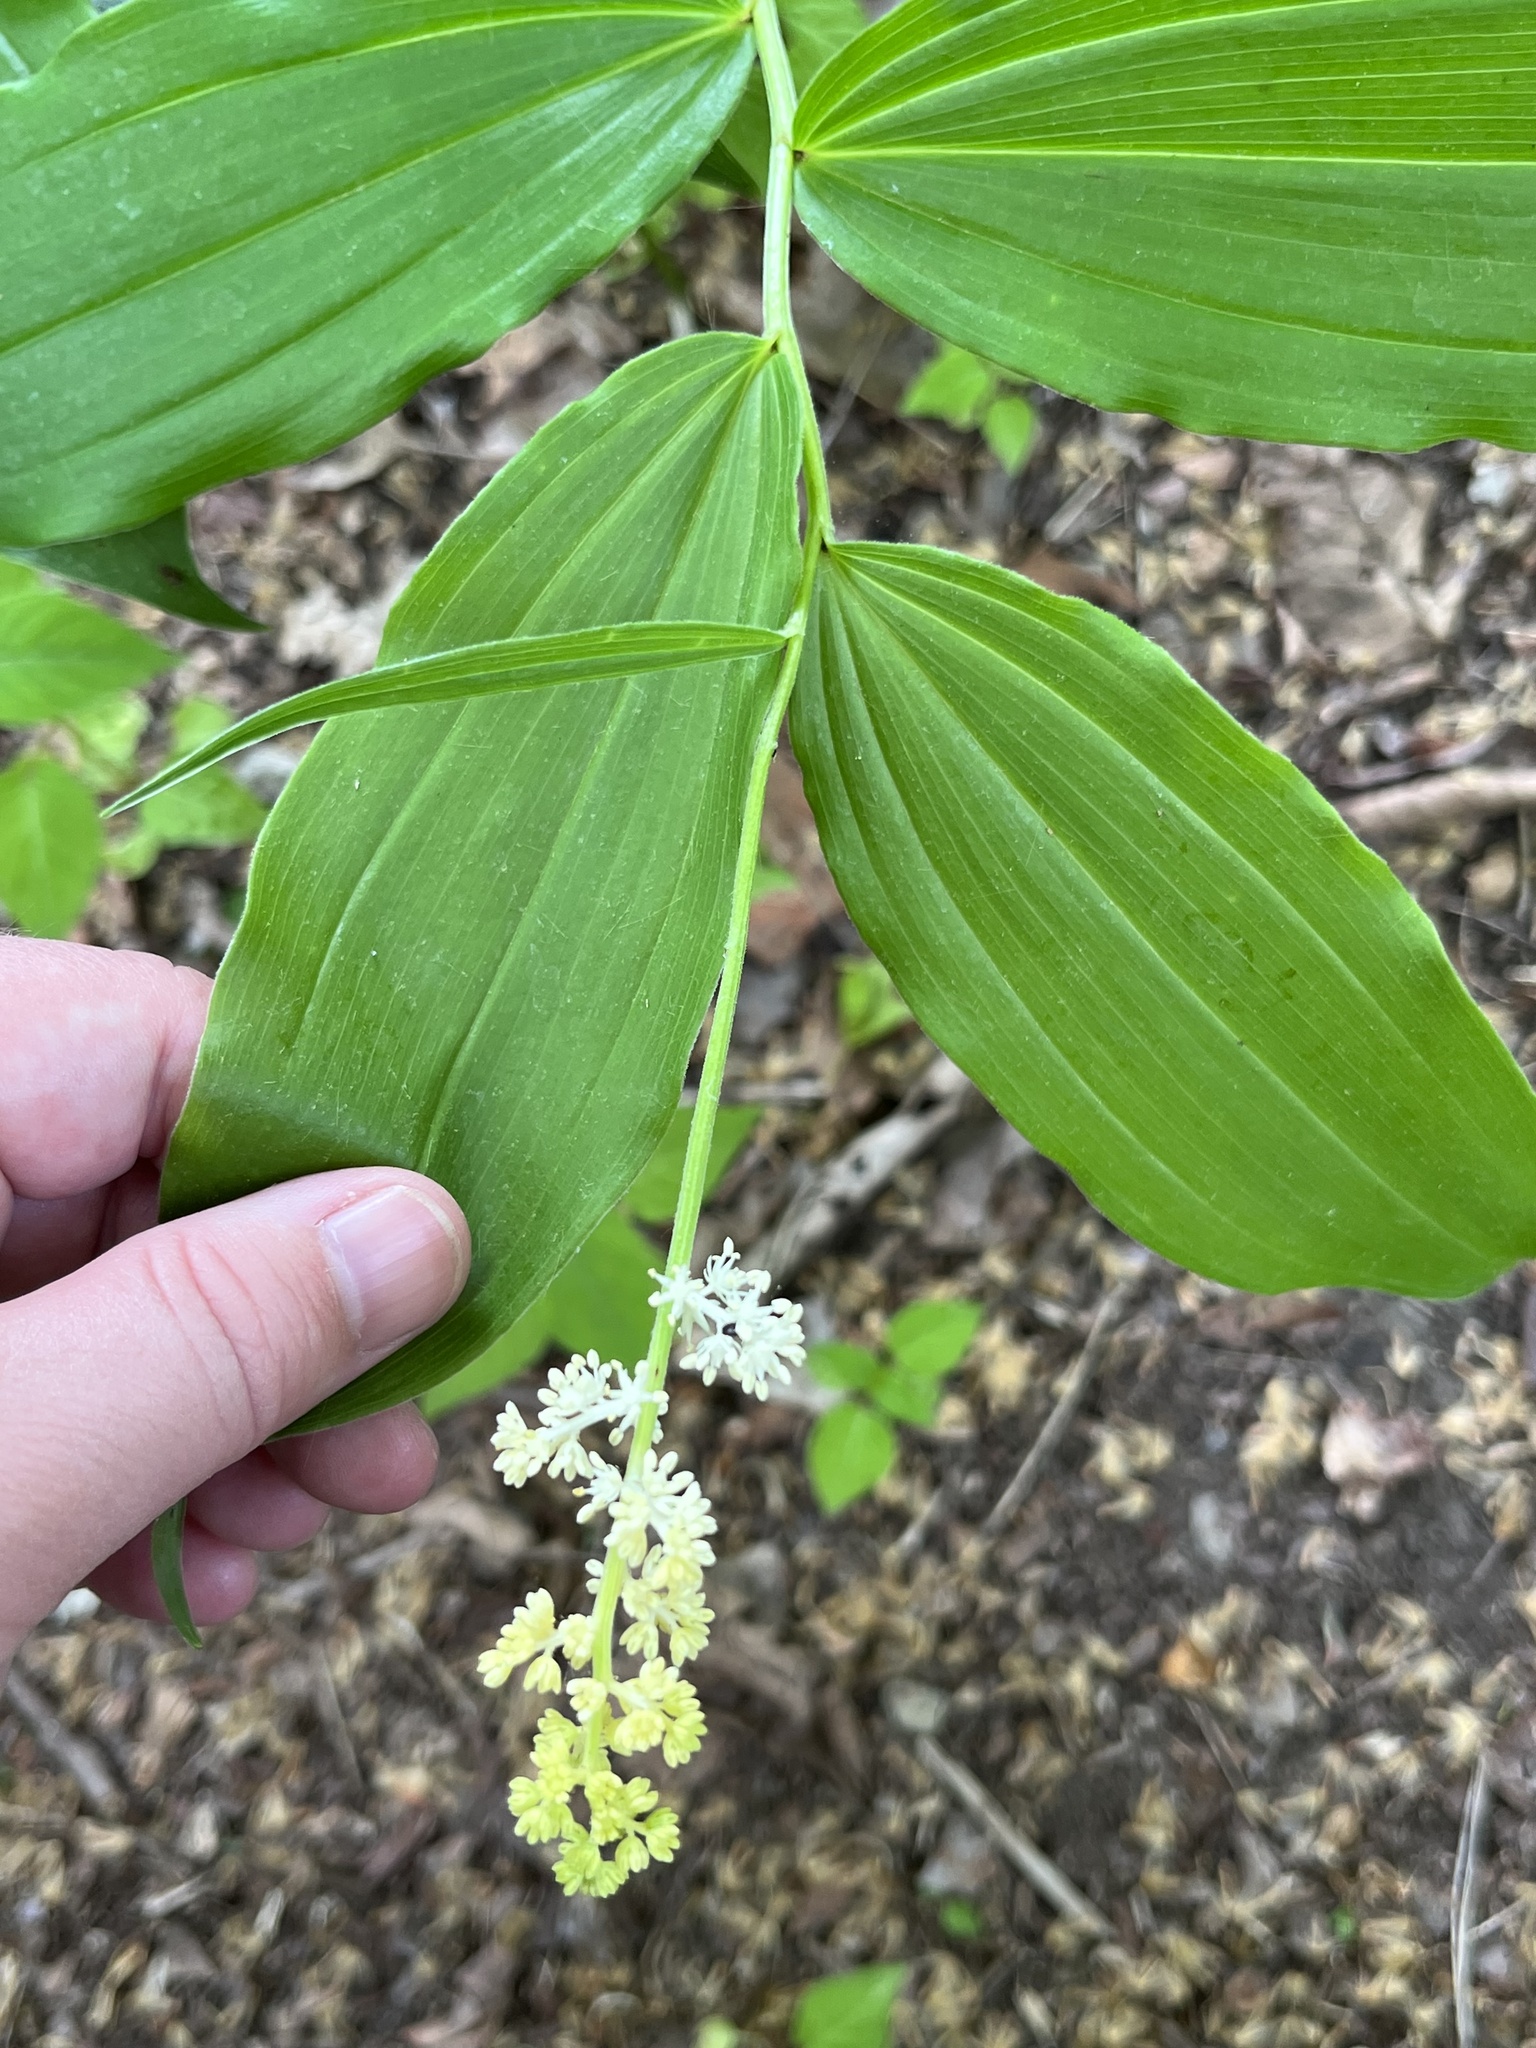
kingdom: Plantae
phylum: Tracheophyta
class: Liliopsida
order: Asparagales
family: Asparagaceae
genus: Maianthemum
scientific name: Maianthemum racemosum
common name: False spikenard
